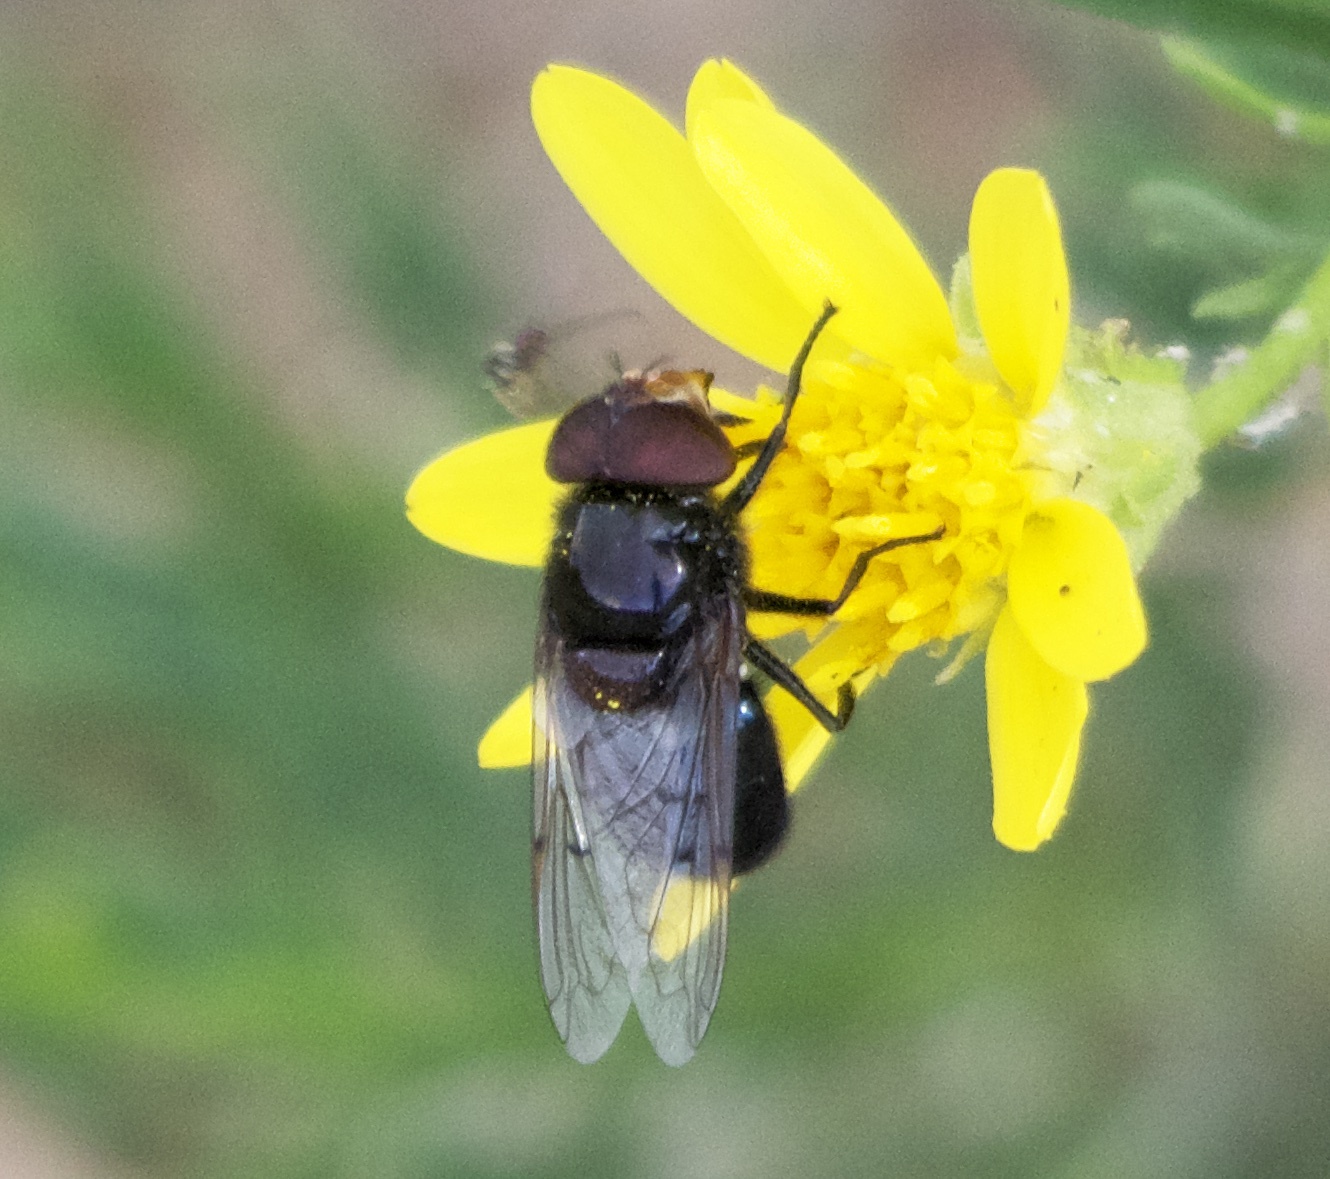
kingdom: Animalia
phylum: Arthropoda
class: Insecta
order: Diptera
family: Syrphidae
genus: Copestylum
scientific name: Copestylum victoria
